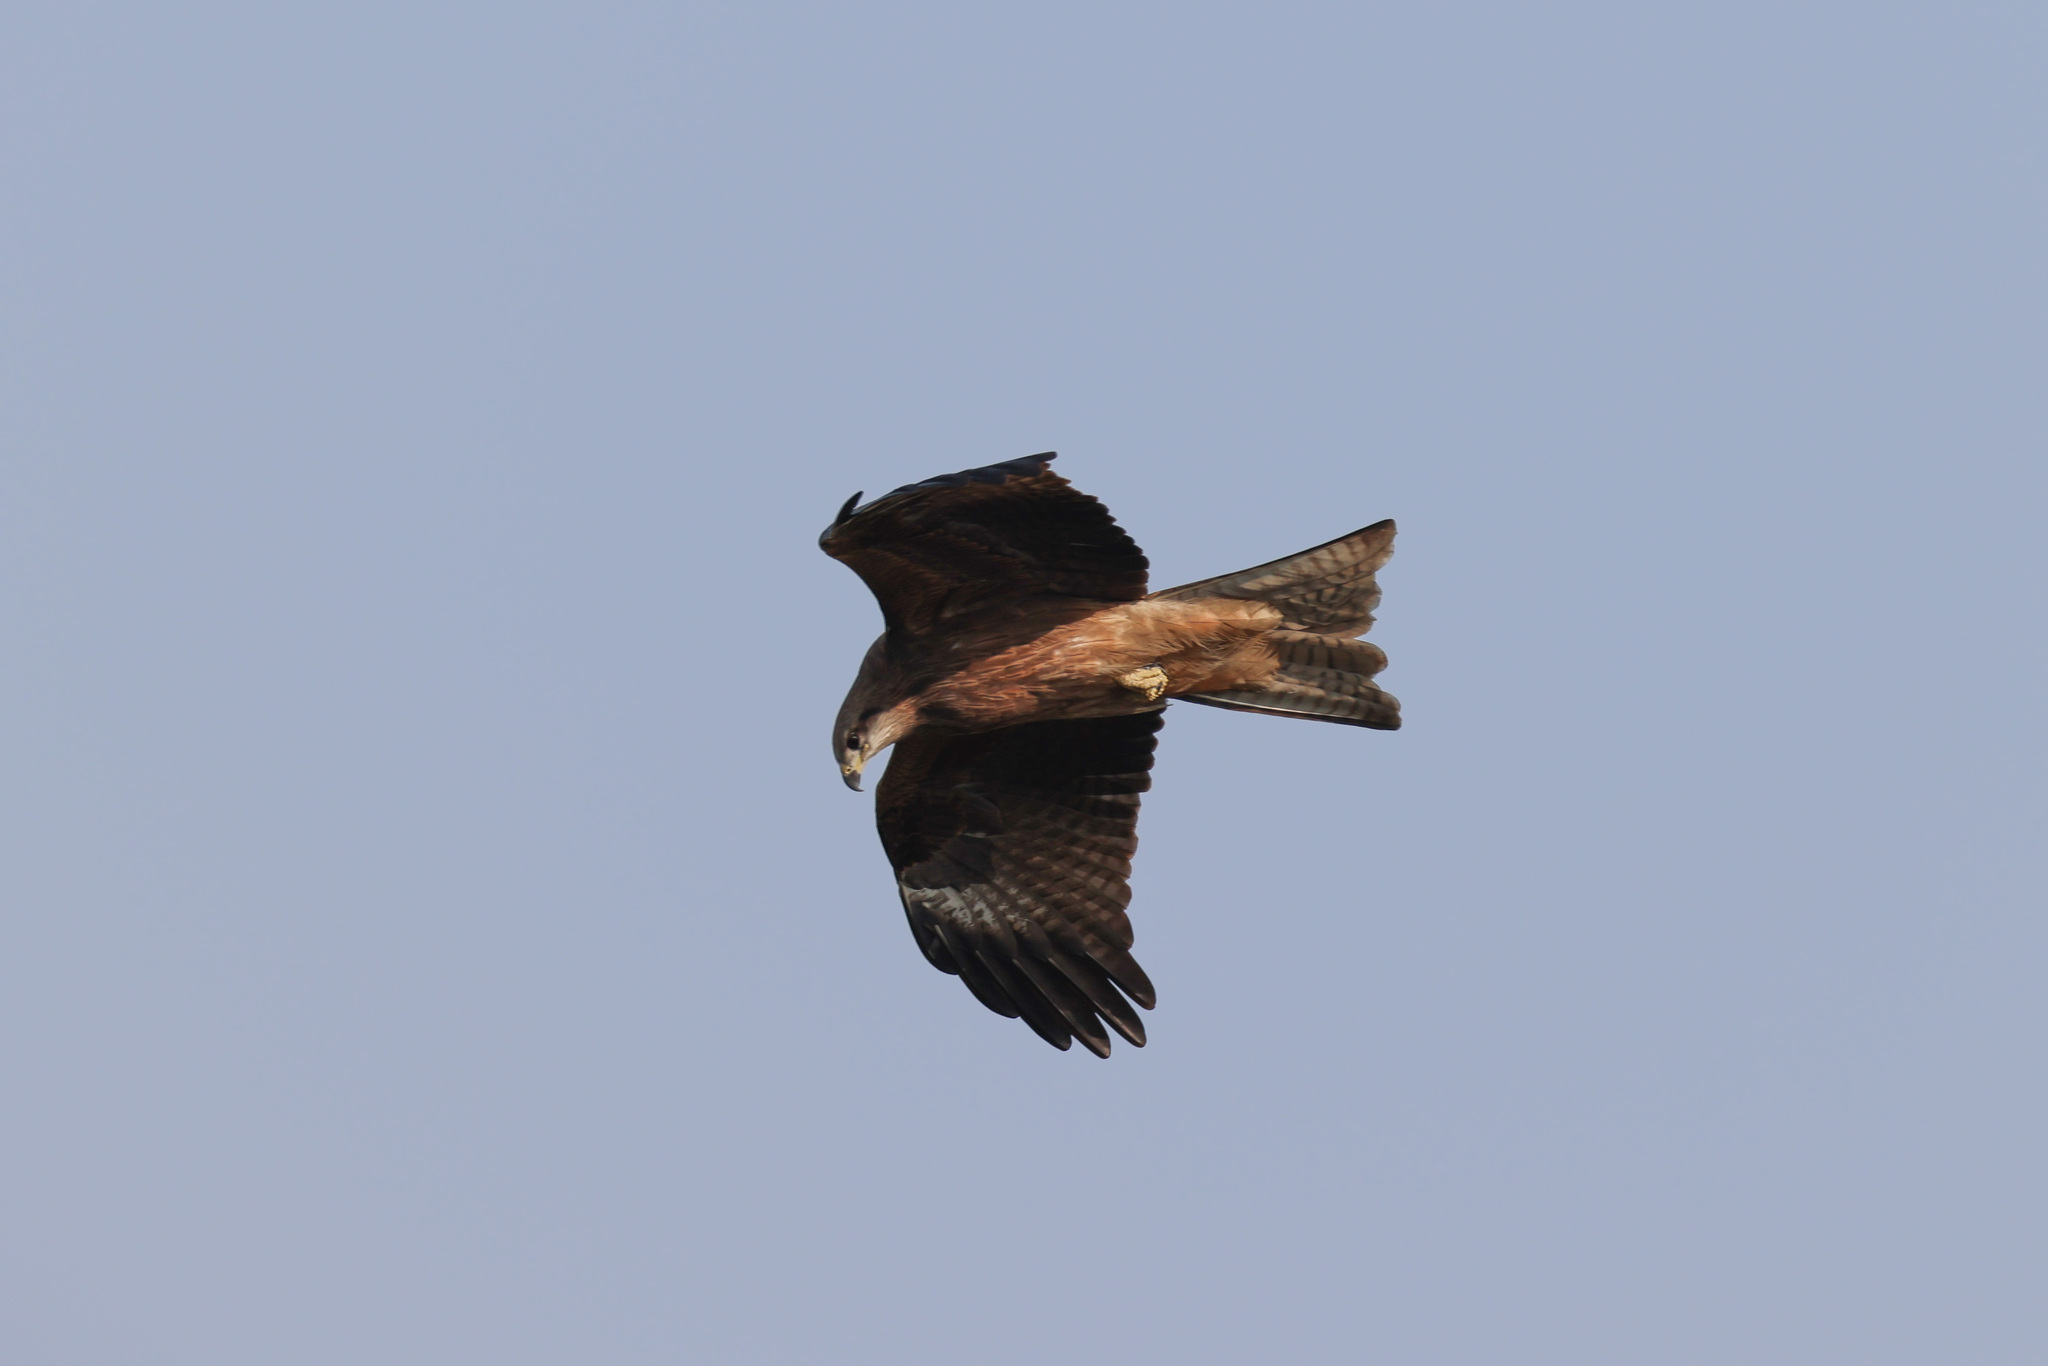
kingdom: Animalia
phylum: Chordata
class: Aves
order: Accipitriformes
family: Accipitridae
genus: Milvus
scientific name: Milvus migrans
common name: Black kite
